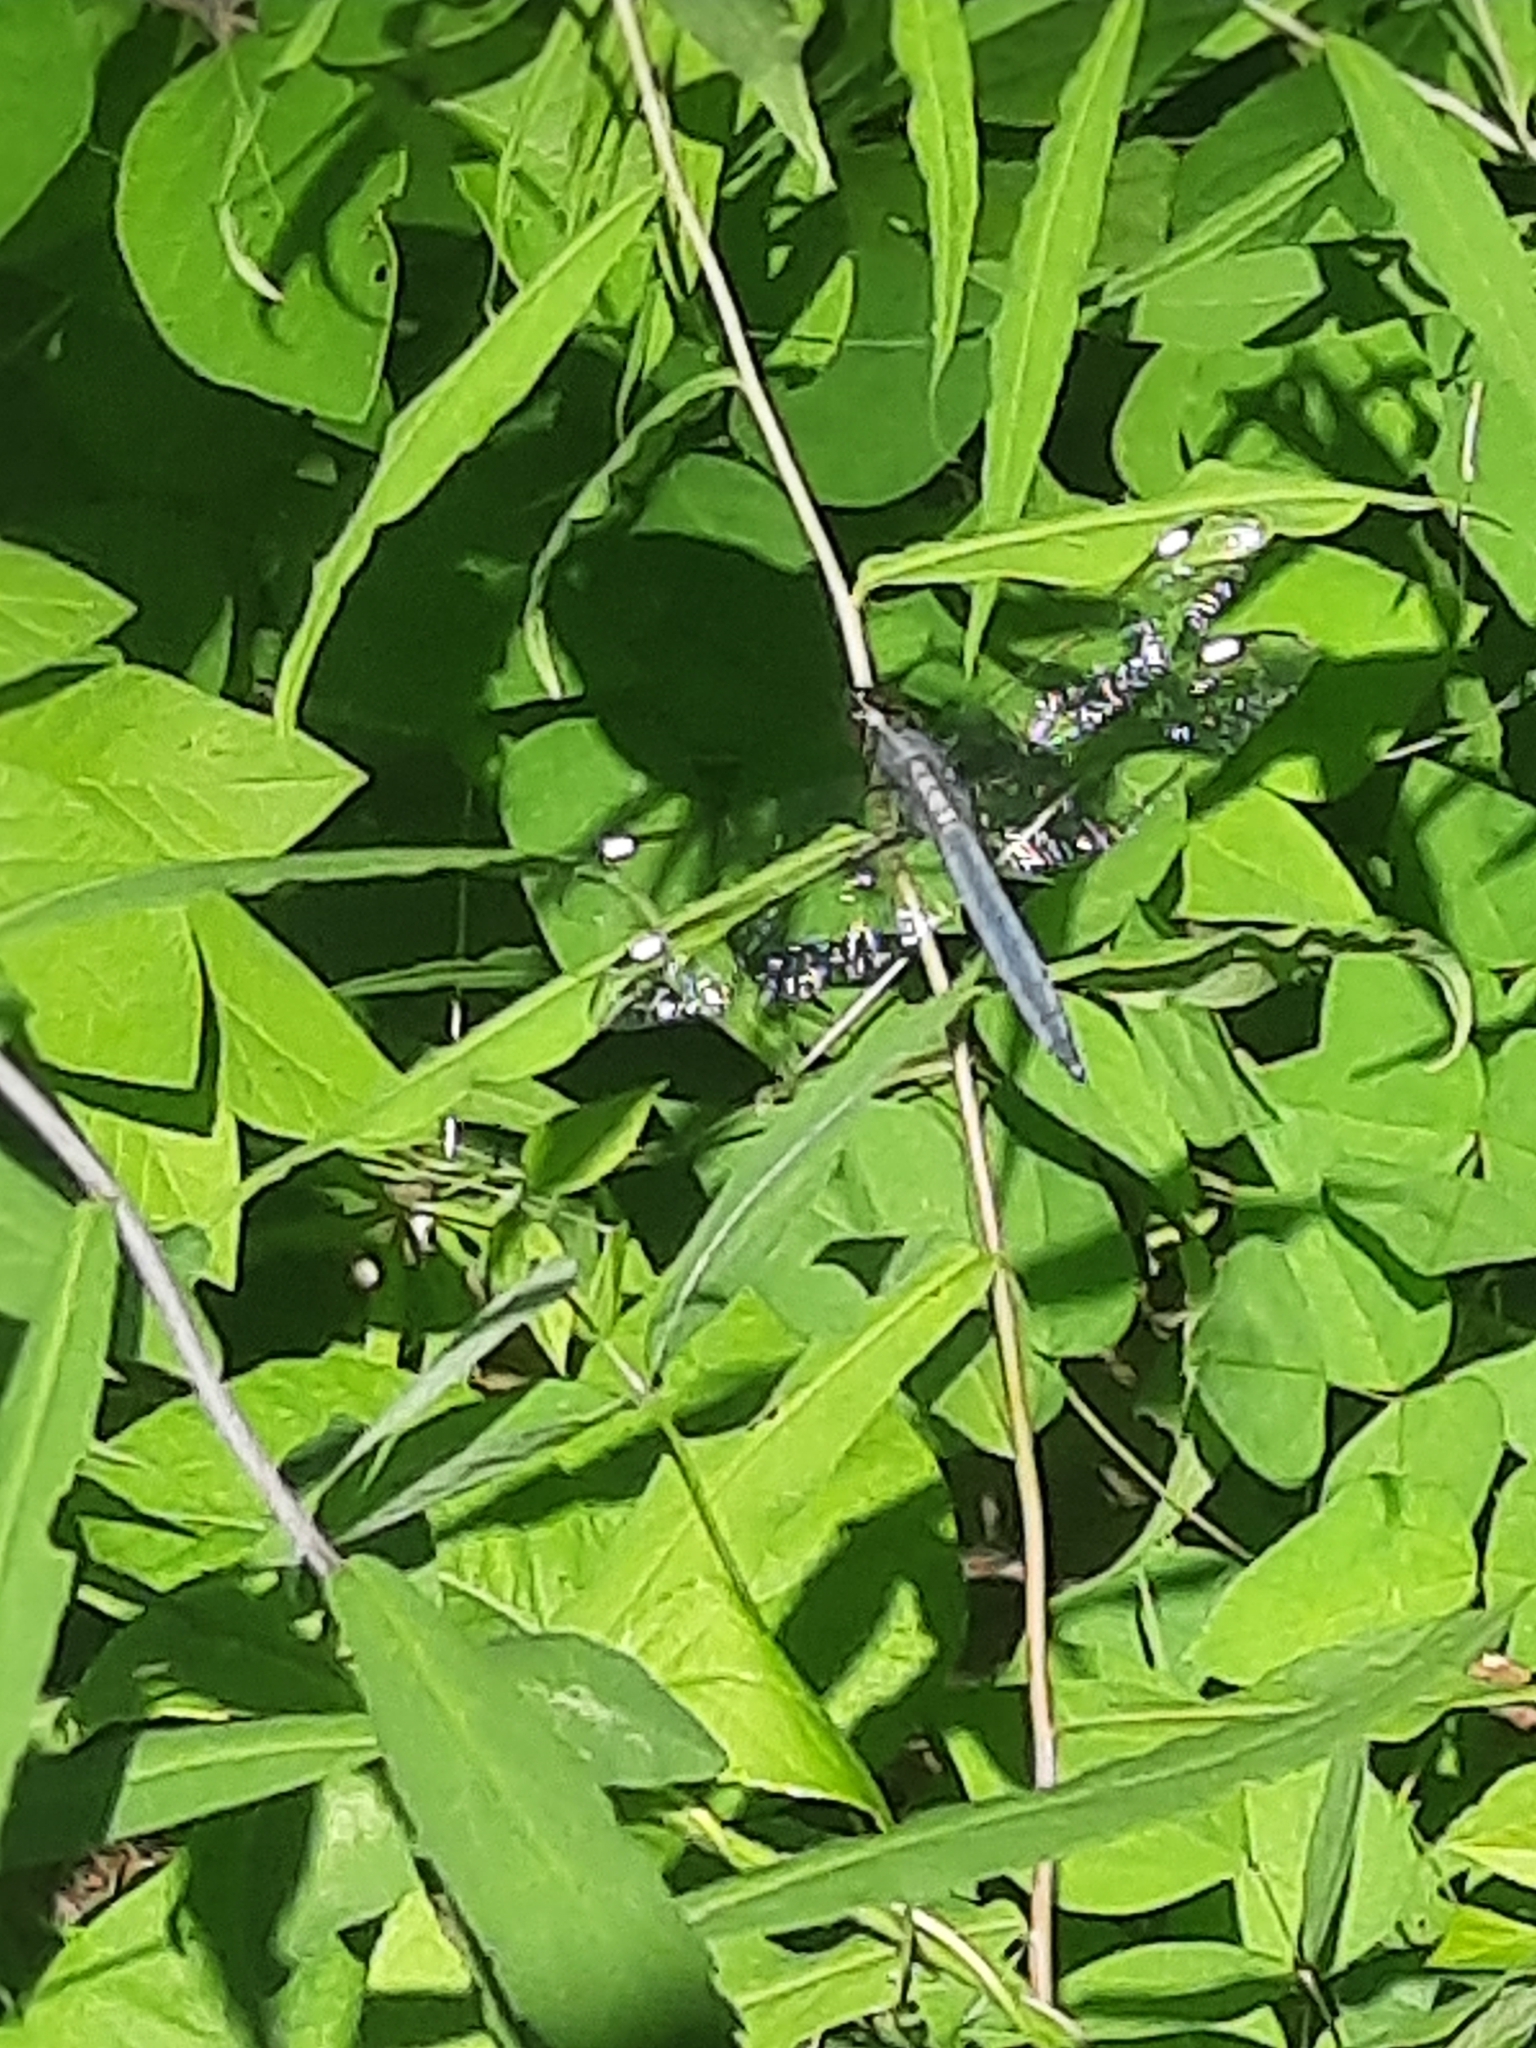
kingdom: Animalia
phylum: Arthropoda
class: Insecta
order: Odonata
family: Libellulidae
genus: Libellula
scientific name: Libellula cyanea
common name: Spangled skimmer
